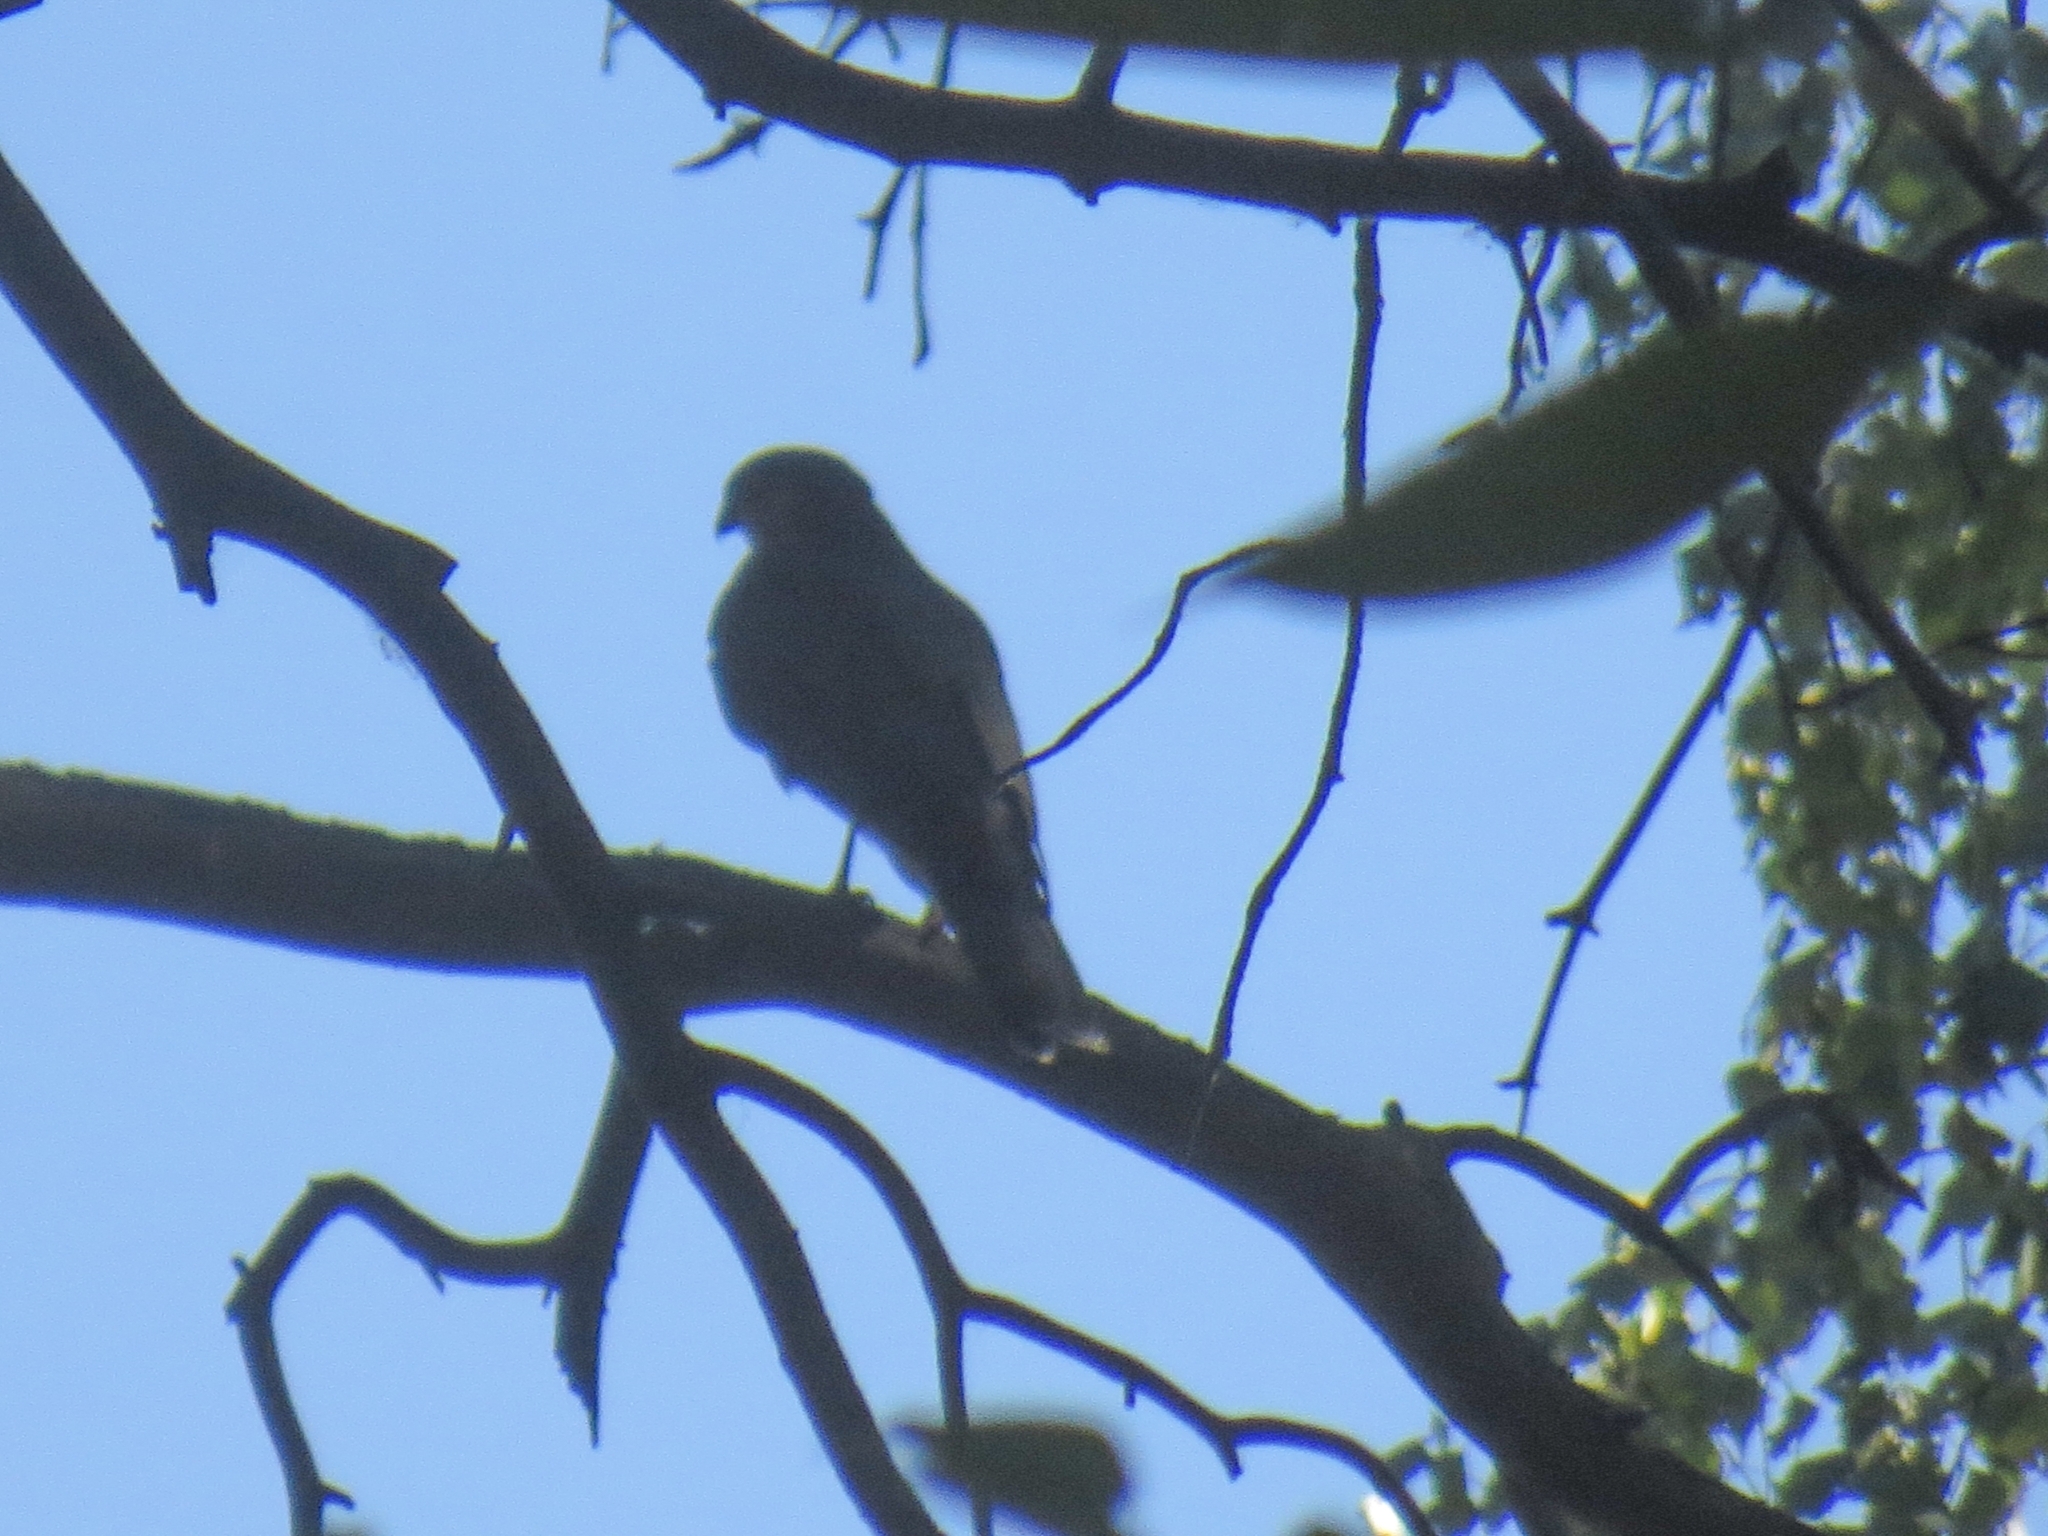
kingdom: Animalia
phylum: Chordata
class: Aves
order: Accipitriformes
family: Accipitridae
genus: Accipiter
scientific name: Accipiter nisus
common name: Eurasian sparrowhawk
